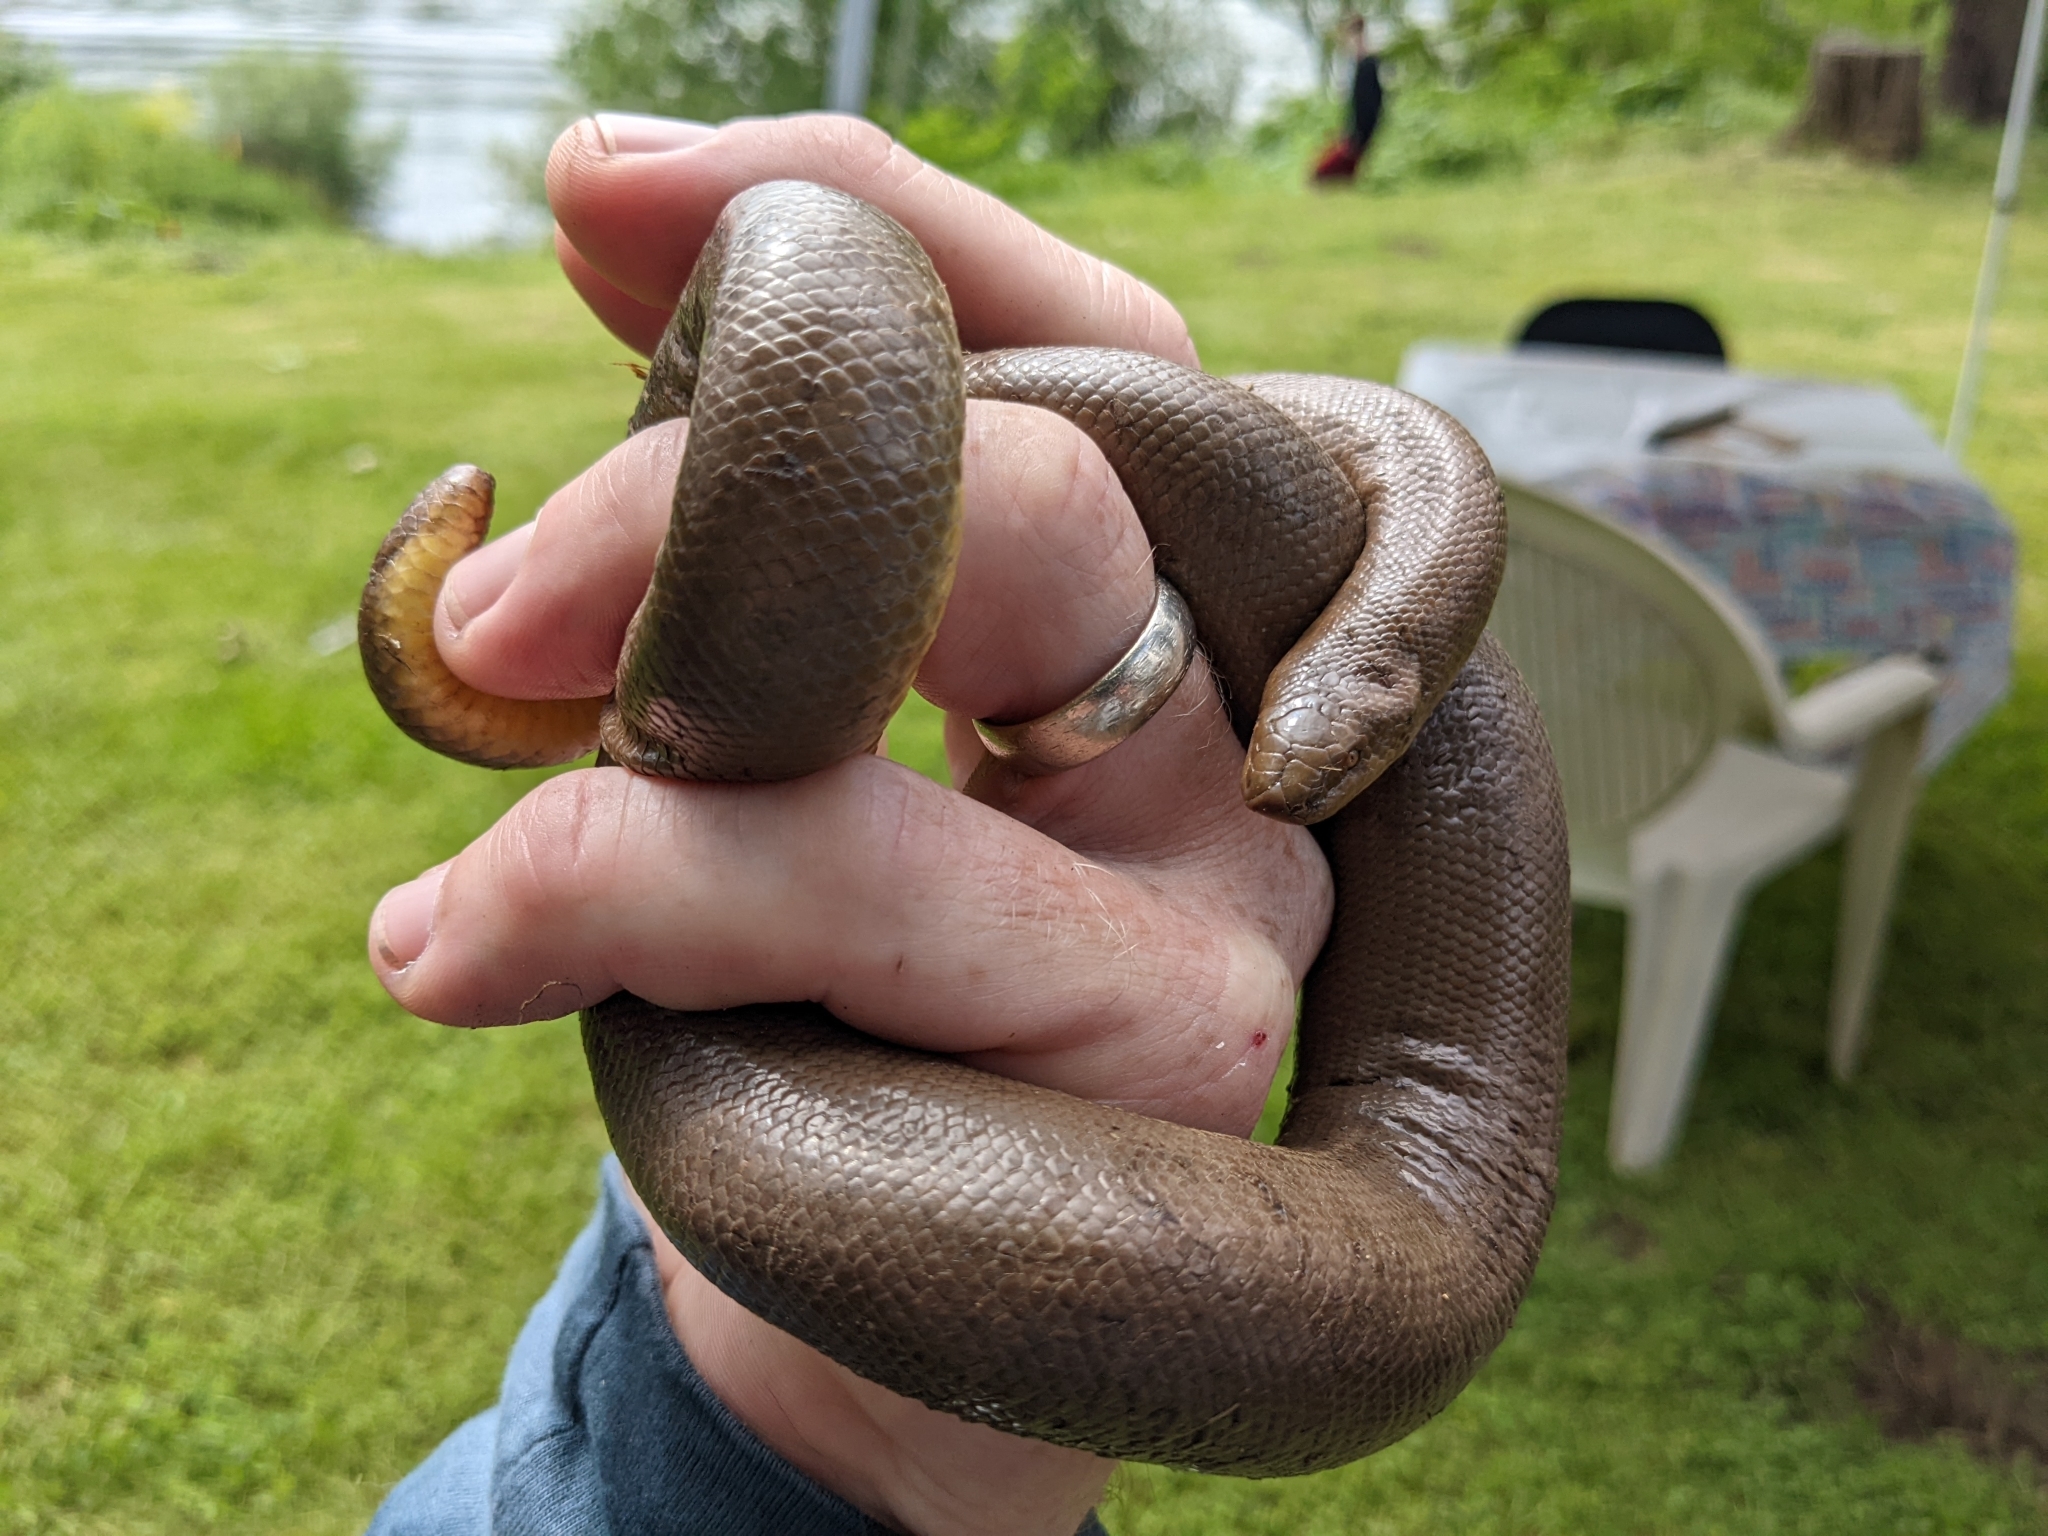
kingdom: Animalia
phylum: Chordata
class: Squamata
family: Boidae
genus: Charina
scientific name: Charina bottae
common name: Northern rubber boa
